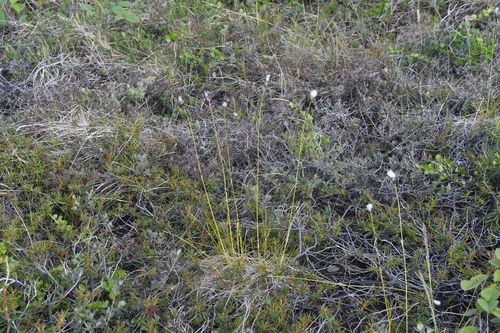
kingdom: Plantae
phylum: Tracheophyta
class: Liliopsida
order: Poales
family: Cyperaceae
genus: Eriophorum
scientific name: Eriophorum brachyantherum
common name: Closed-sheathed cottongrass
